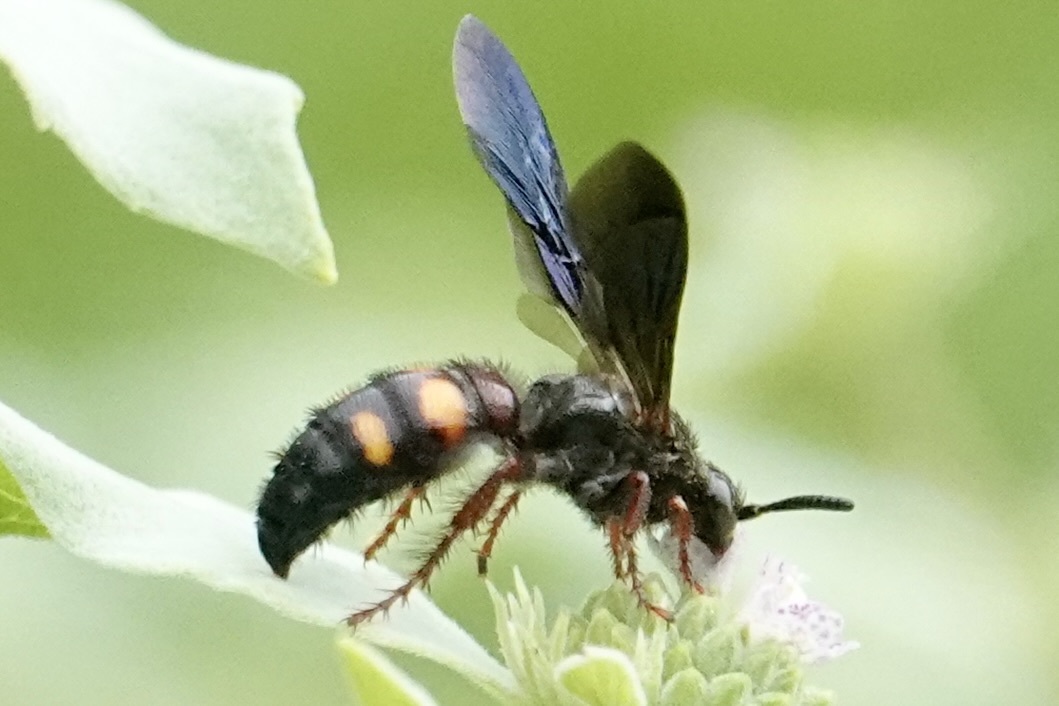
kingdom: Animalia
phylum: Arthropoda
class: Insecta
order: Hymenoptera
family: Scoliidae
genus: Scolia
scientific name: Scolia nobilitata
